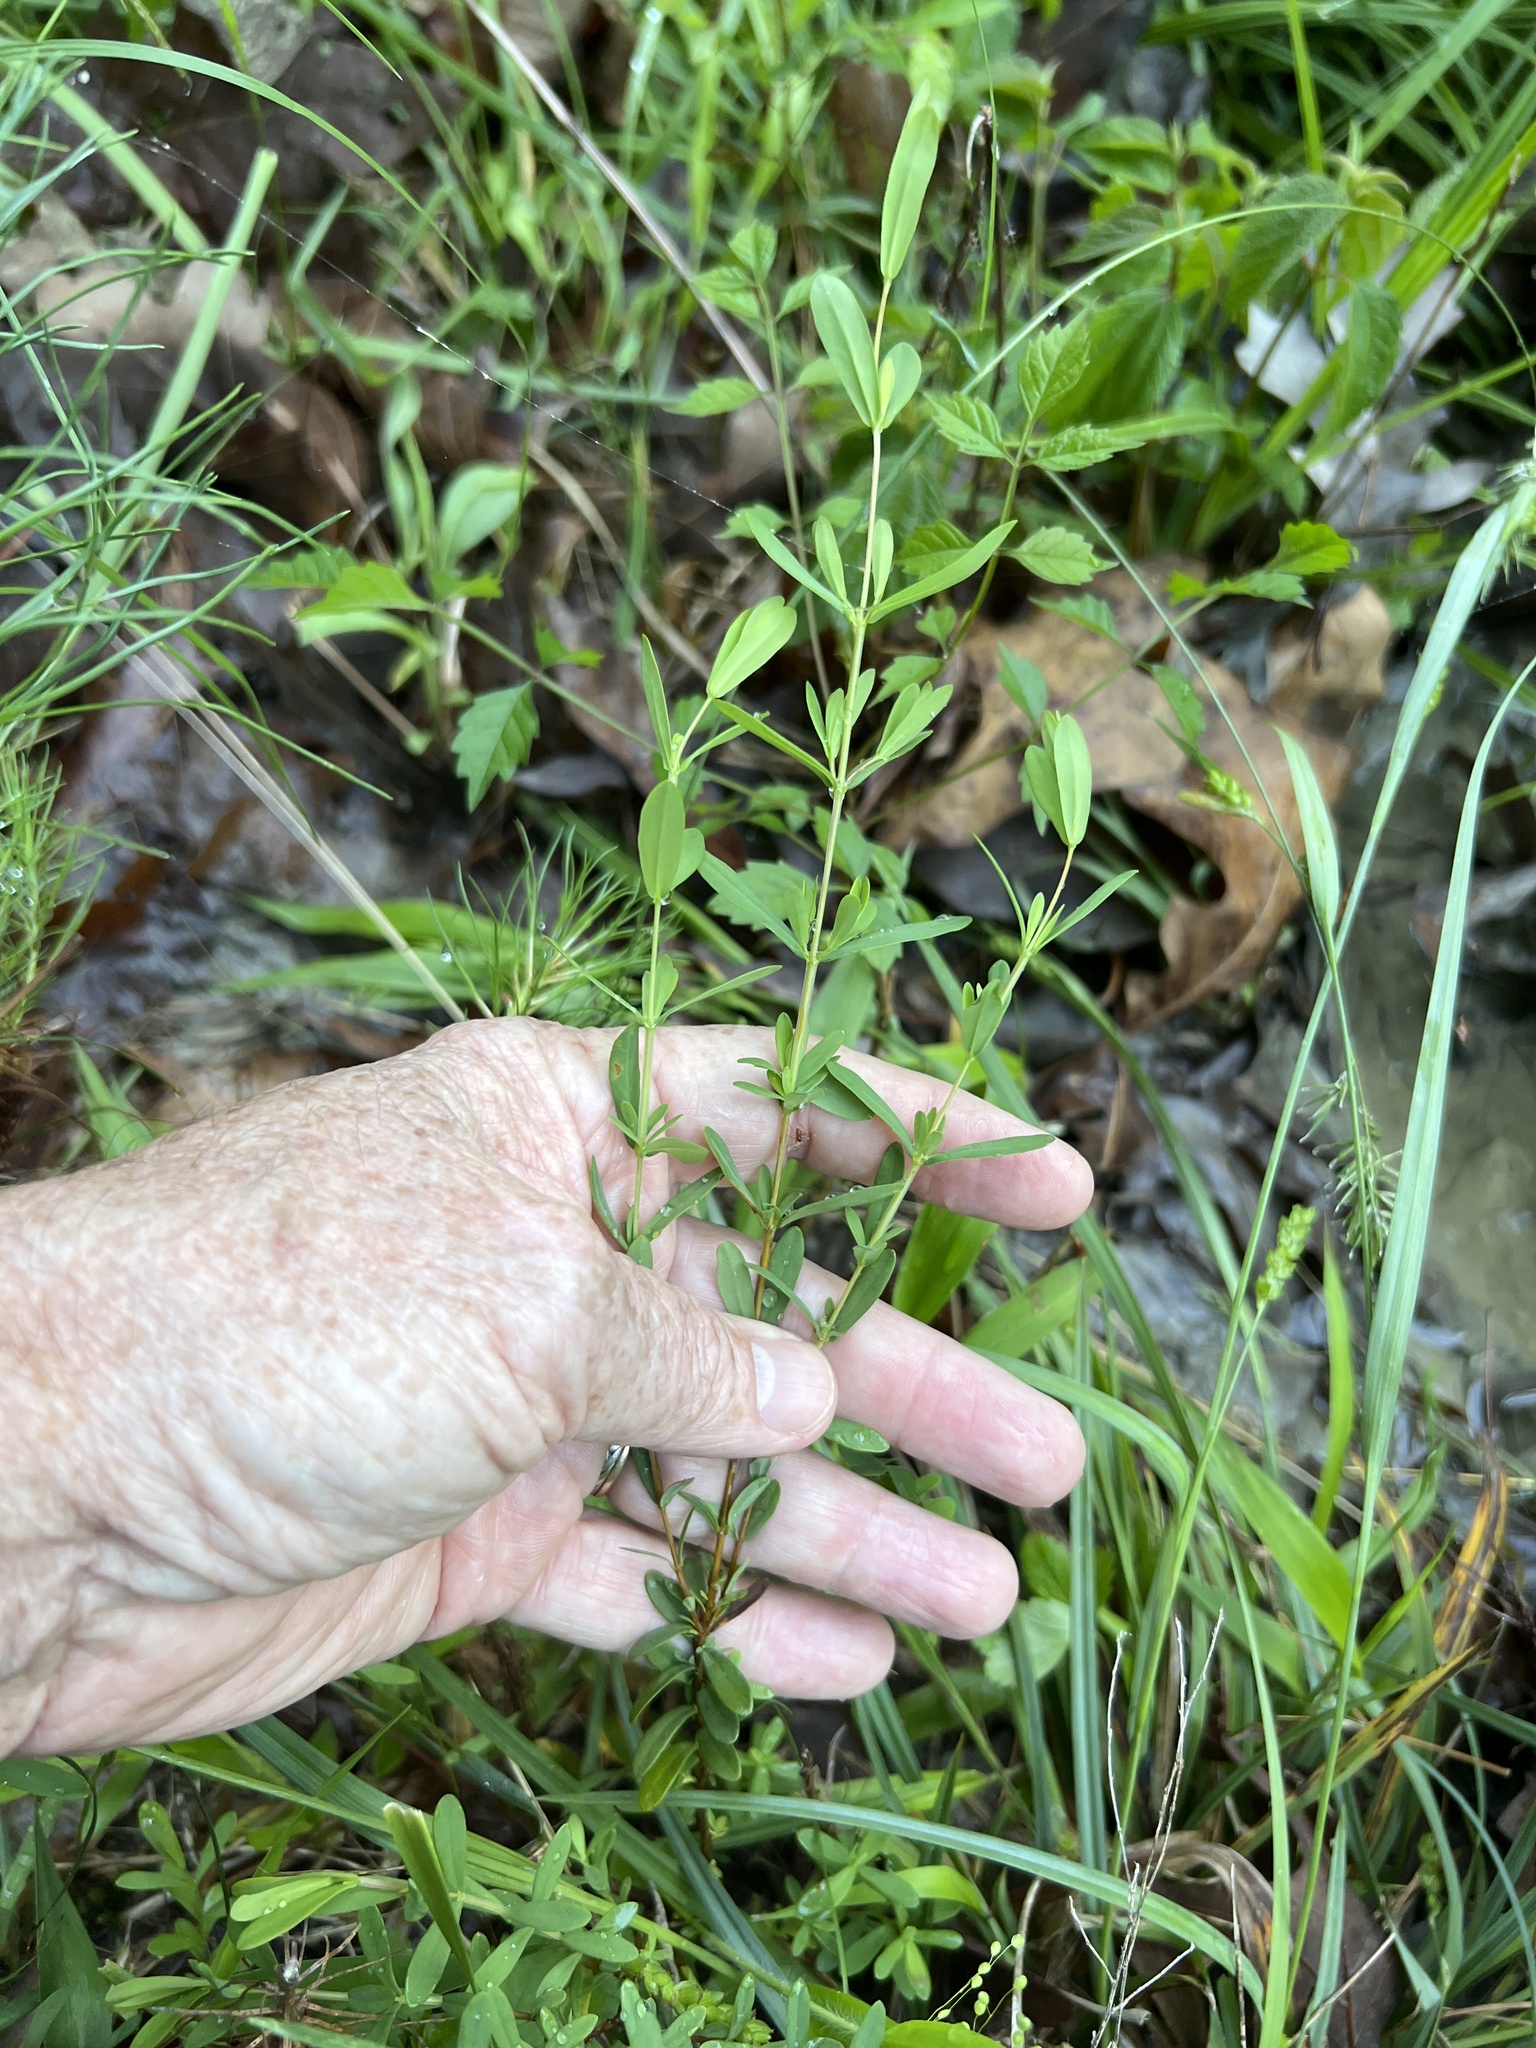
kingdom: Plantae
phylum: Tracheophyta
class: Magnoliopsida
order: Malpighiales
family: Hypericaceae
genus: Hypericum
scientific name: Hypericum hypericoides
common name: St. andrew's cross
